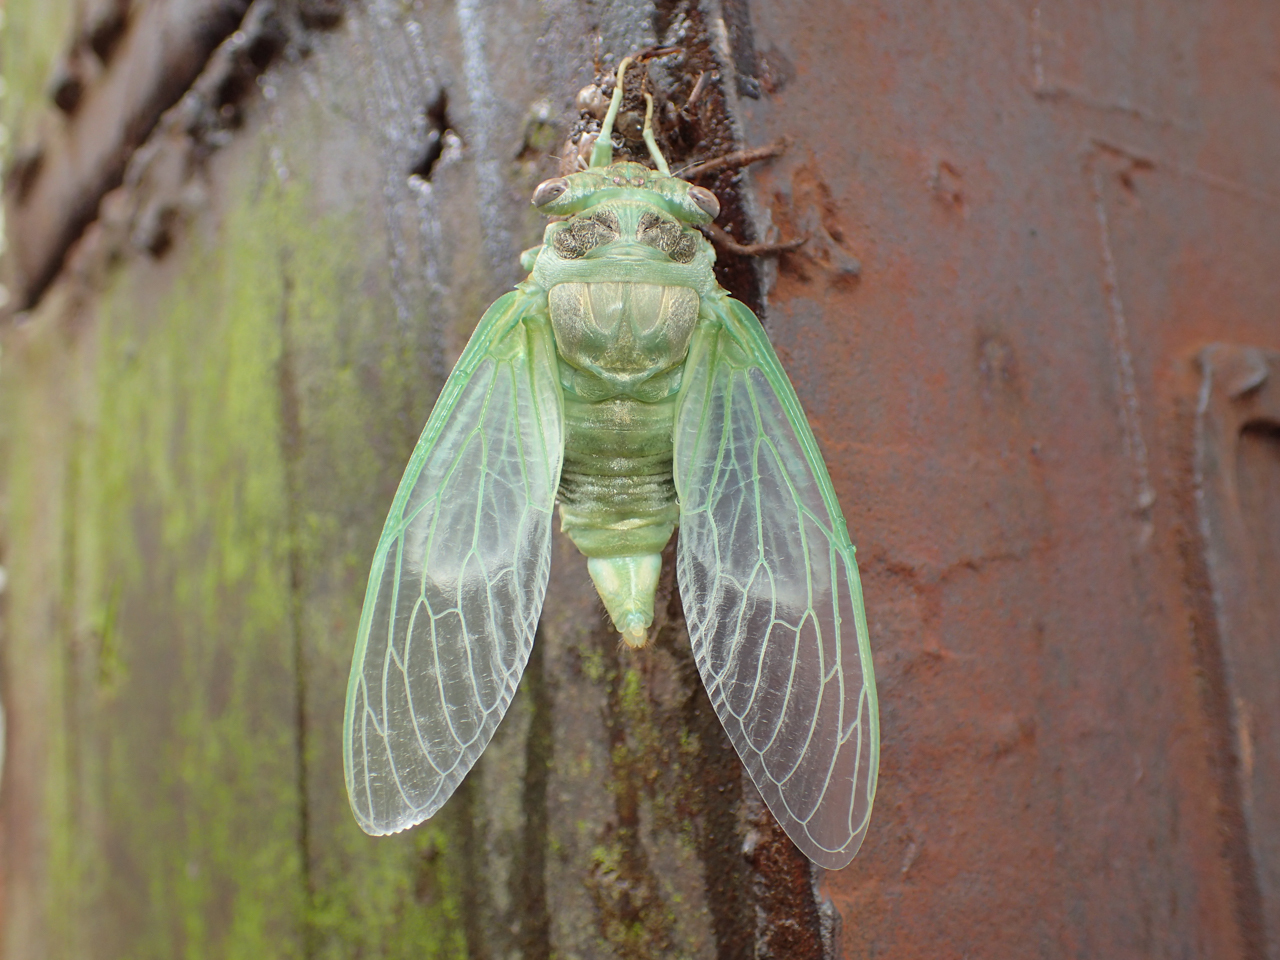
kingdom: Animalia
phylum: Arthropoda
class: Insecta
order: Hemiptera
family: Cicadidae
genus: Diceroprocta
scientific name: Diceroprocta grossa
